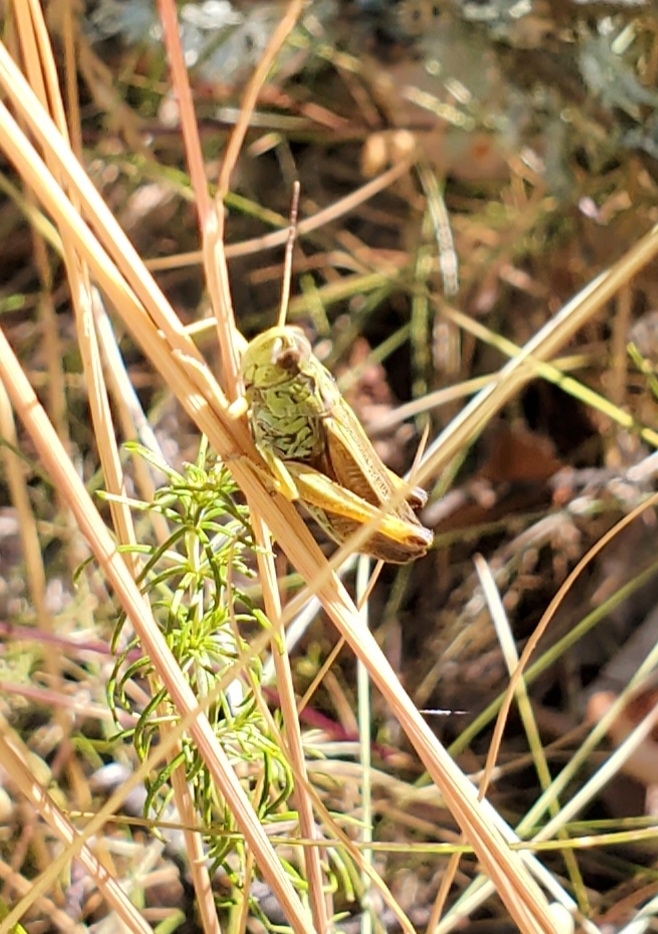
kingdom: Animalia
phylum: Arthropoda
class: Insecta
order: Orthoptera
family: Acrididae
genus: Stauroderus
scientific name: Stauroderus scalaris
